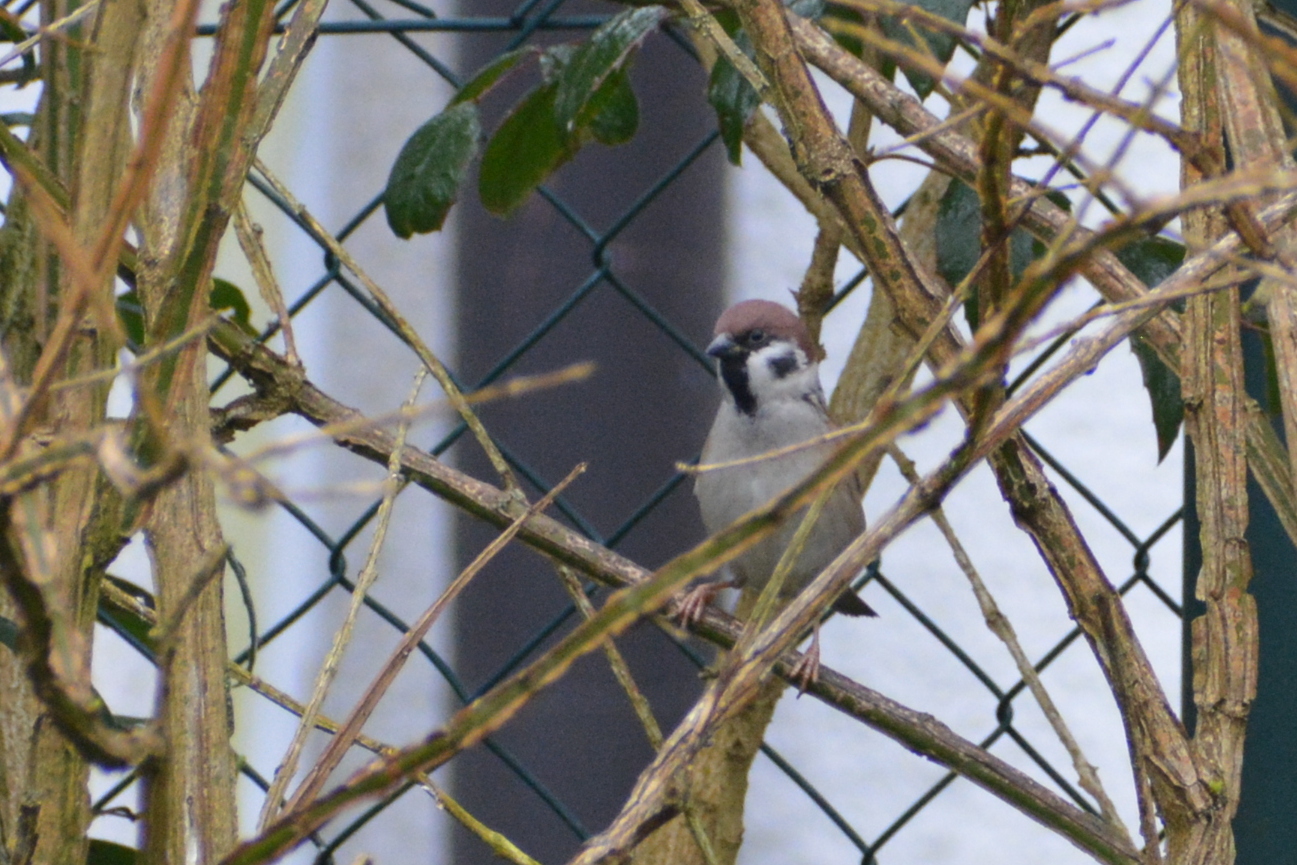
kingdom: Animalia
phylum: Chordata
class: Aves
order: Passeriformes
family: Passeridae
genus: Passer
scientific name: Passer montanus
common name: Eurasian tree sparrow
